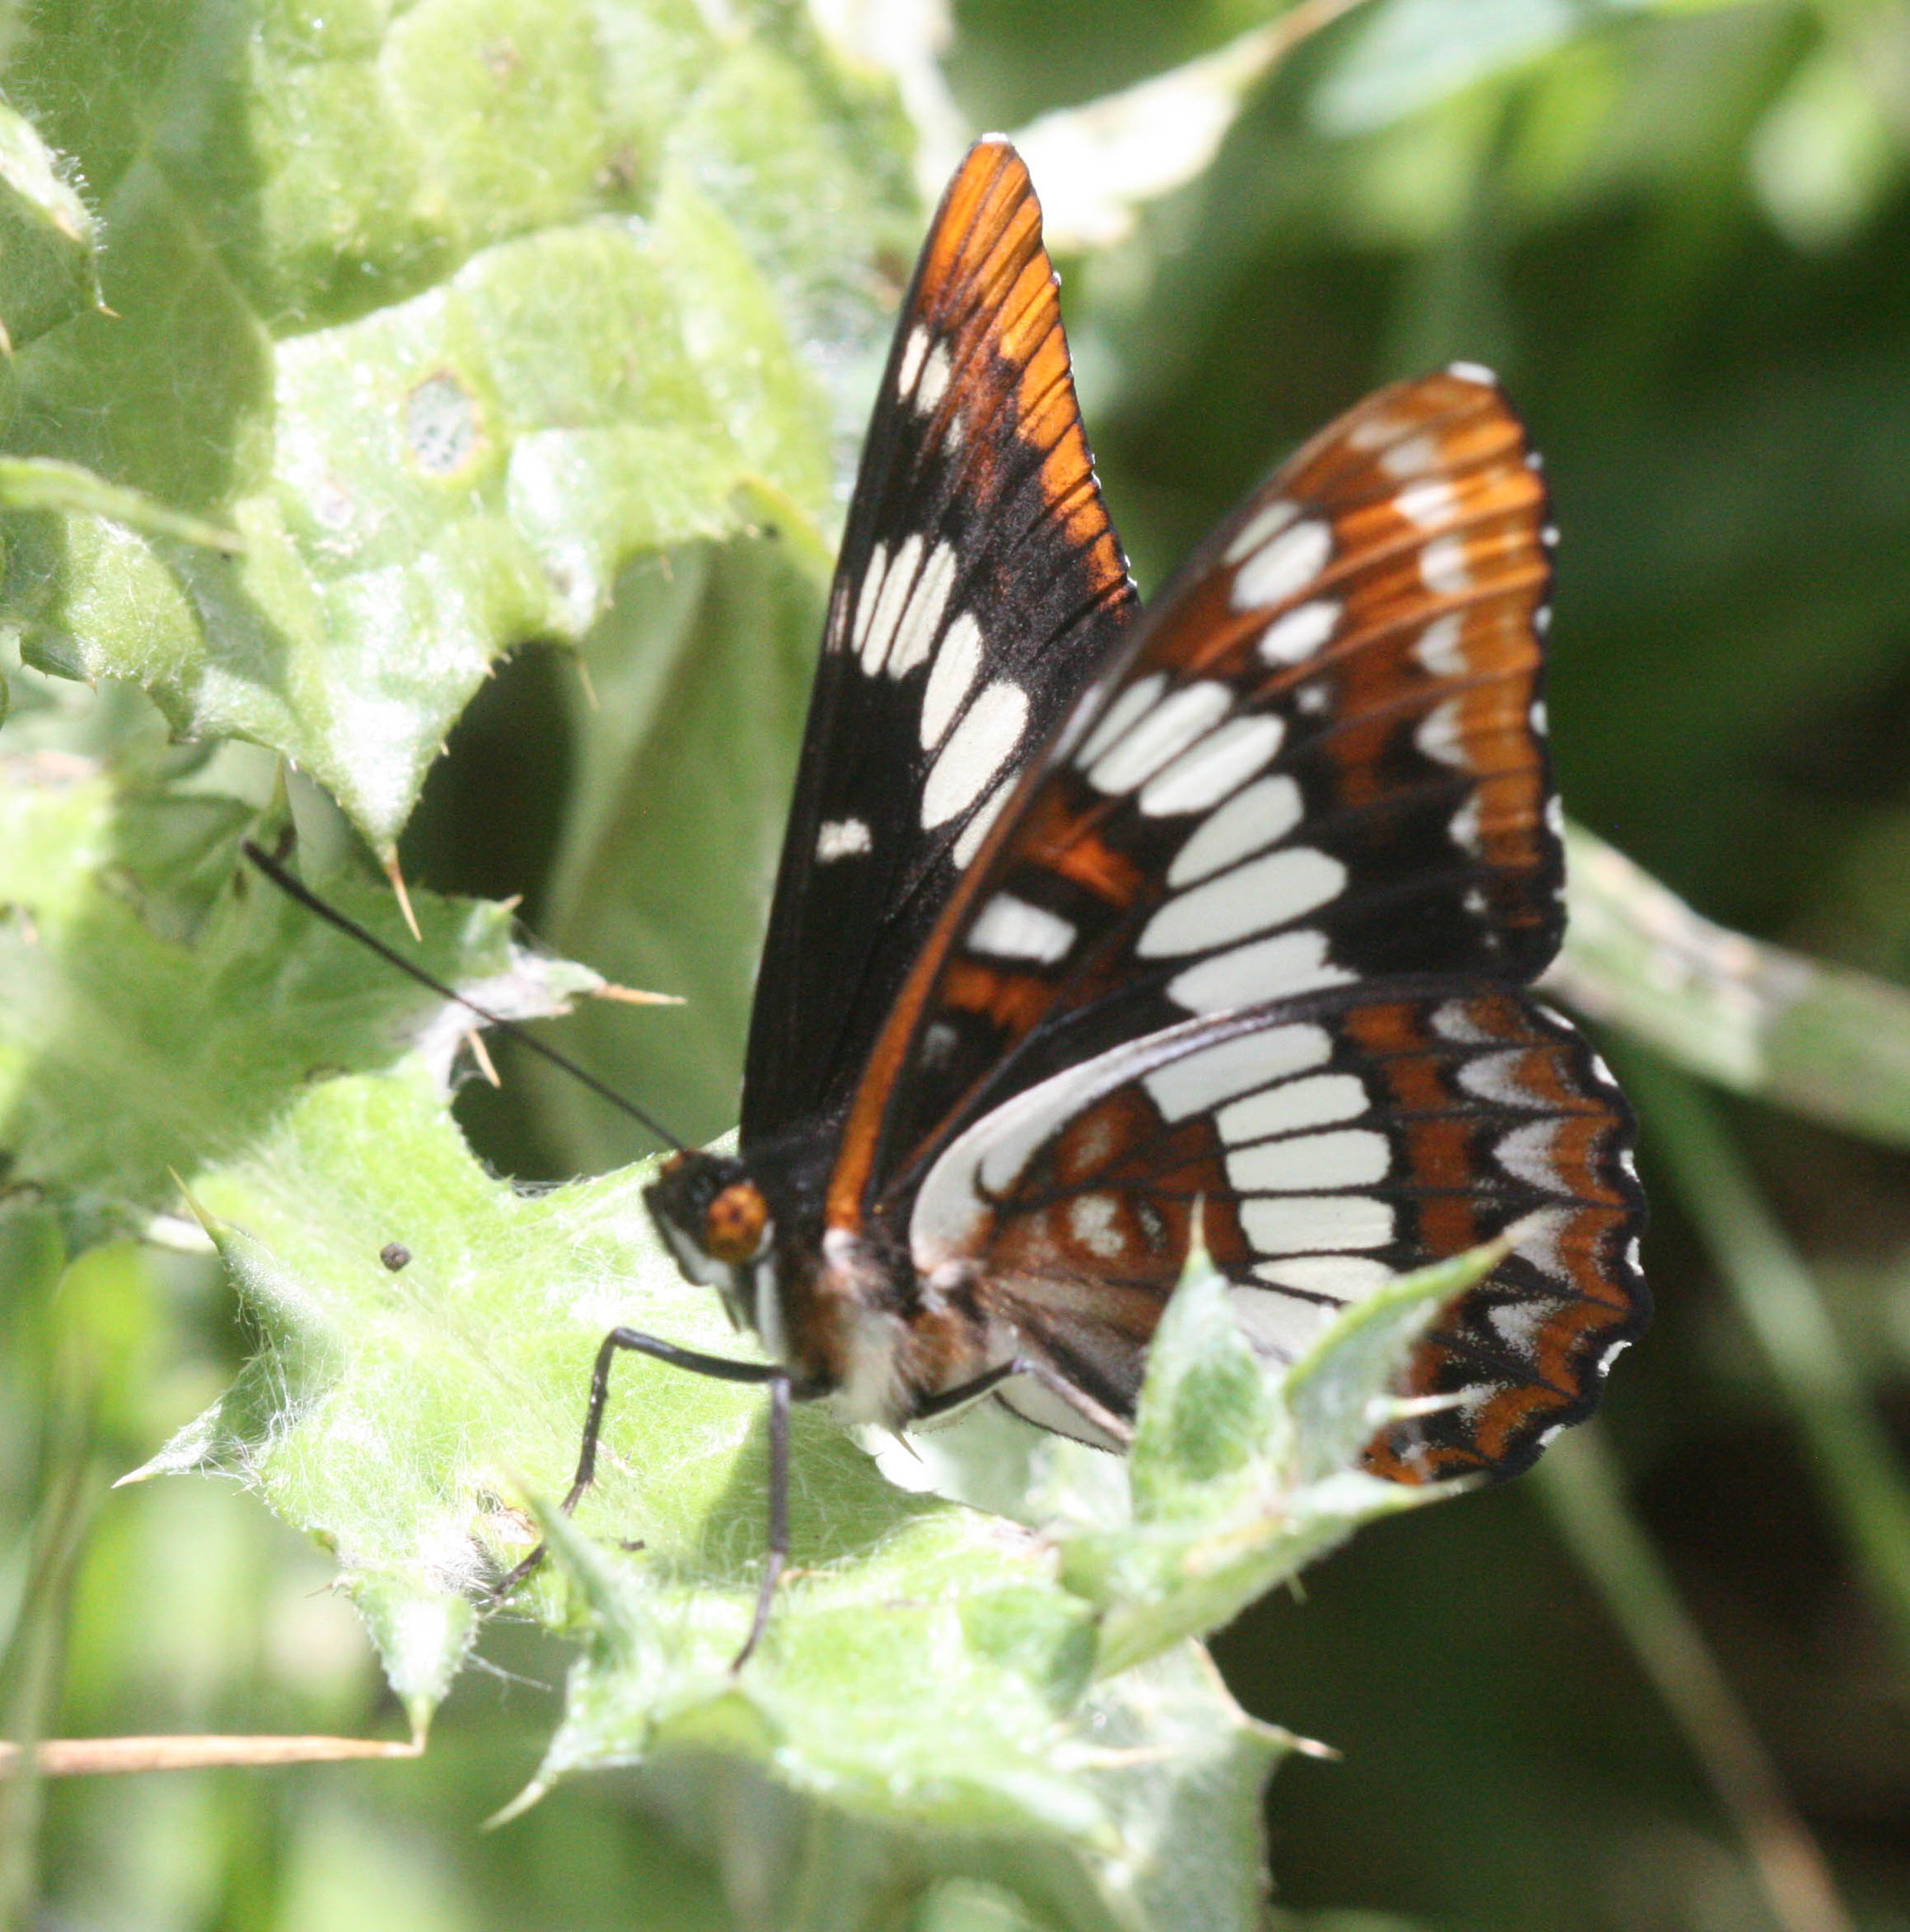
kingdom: Animalia
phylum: Arthropoda
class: Insecta
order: Lepidoptera
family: Nymphalidae
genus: Limenitis
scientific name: Limenitis lorquini
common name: Lorquin's admiral
